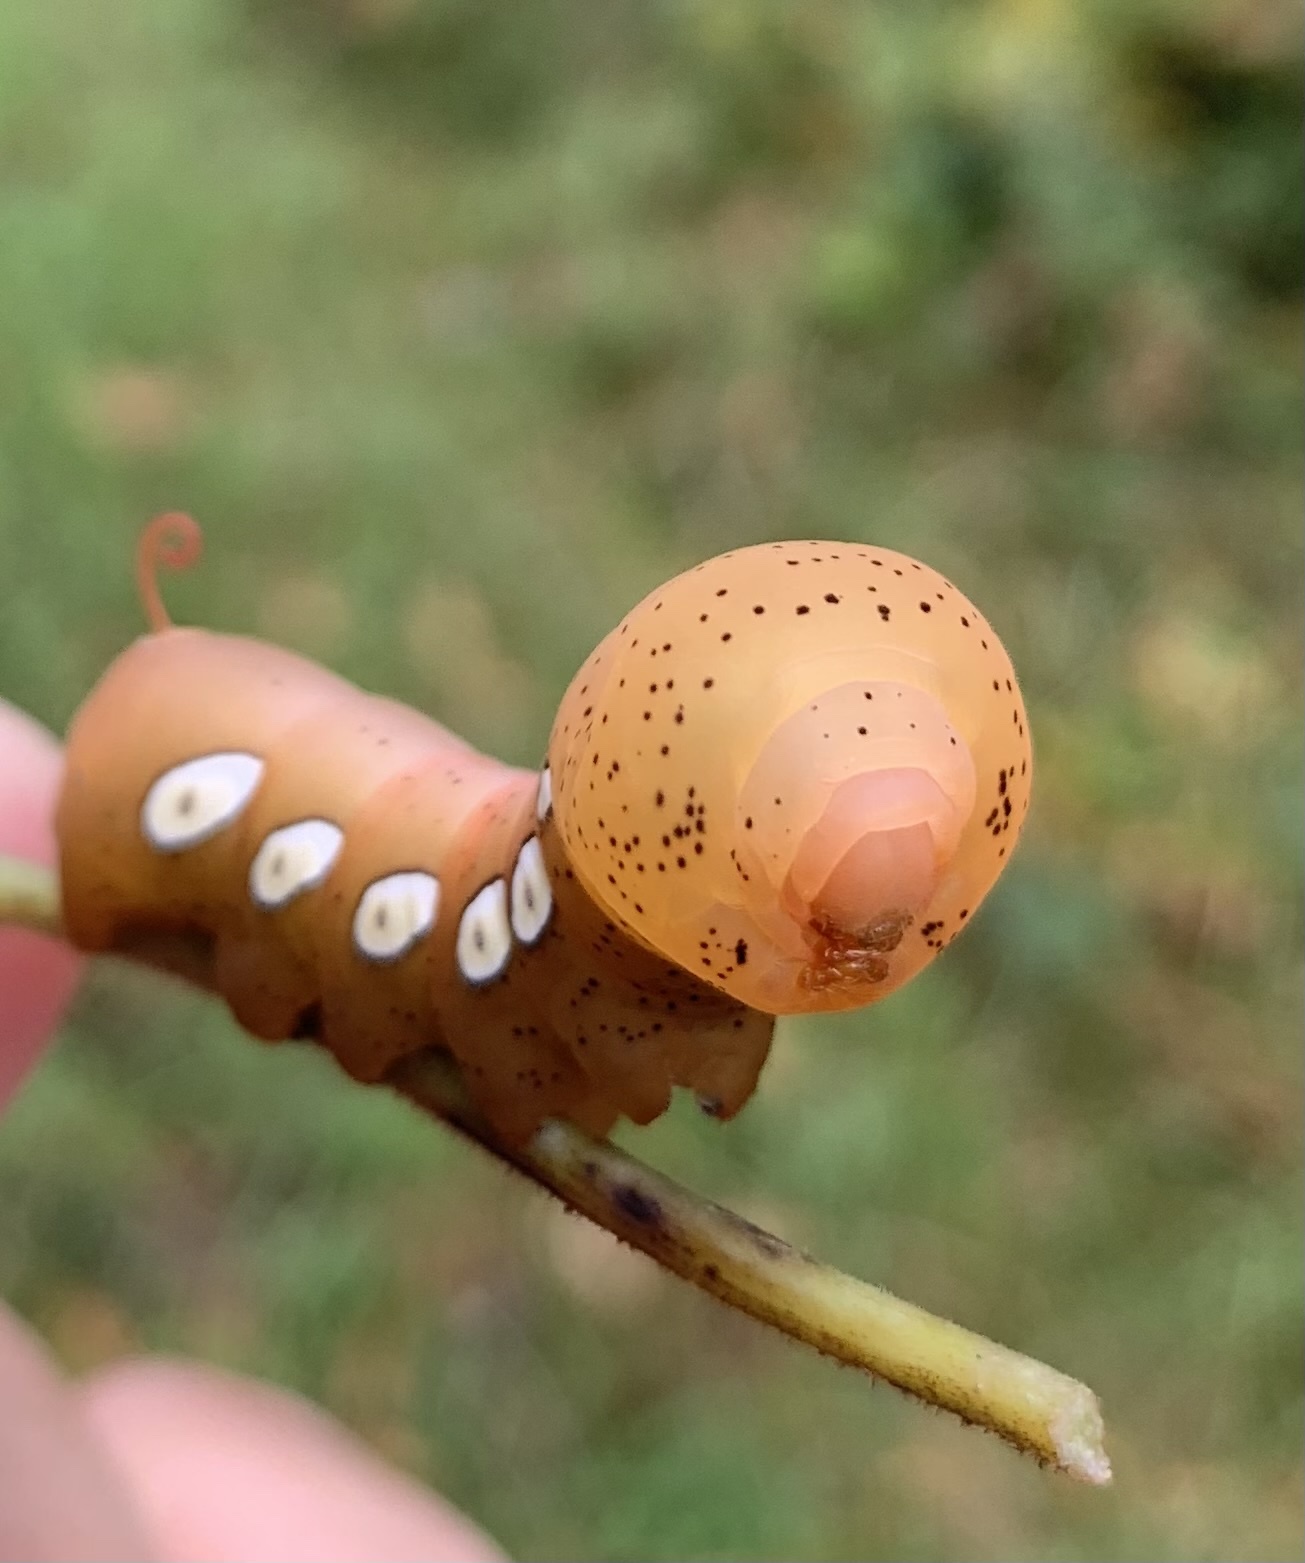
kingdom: Animalia
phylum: Arthropoda
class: Insecta
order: Lepidoptera
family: Sphingidae
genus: Eumorpha
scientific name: Eumorpha pandorus
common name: Pandora sphinx
